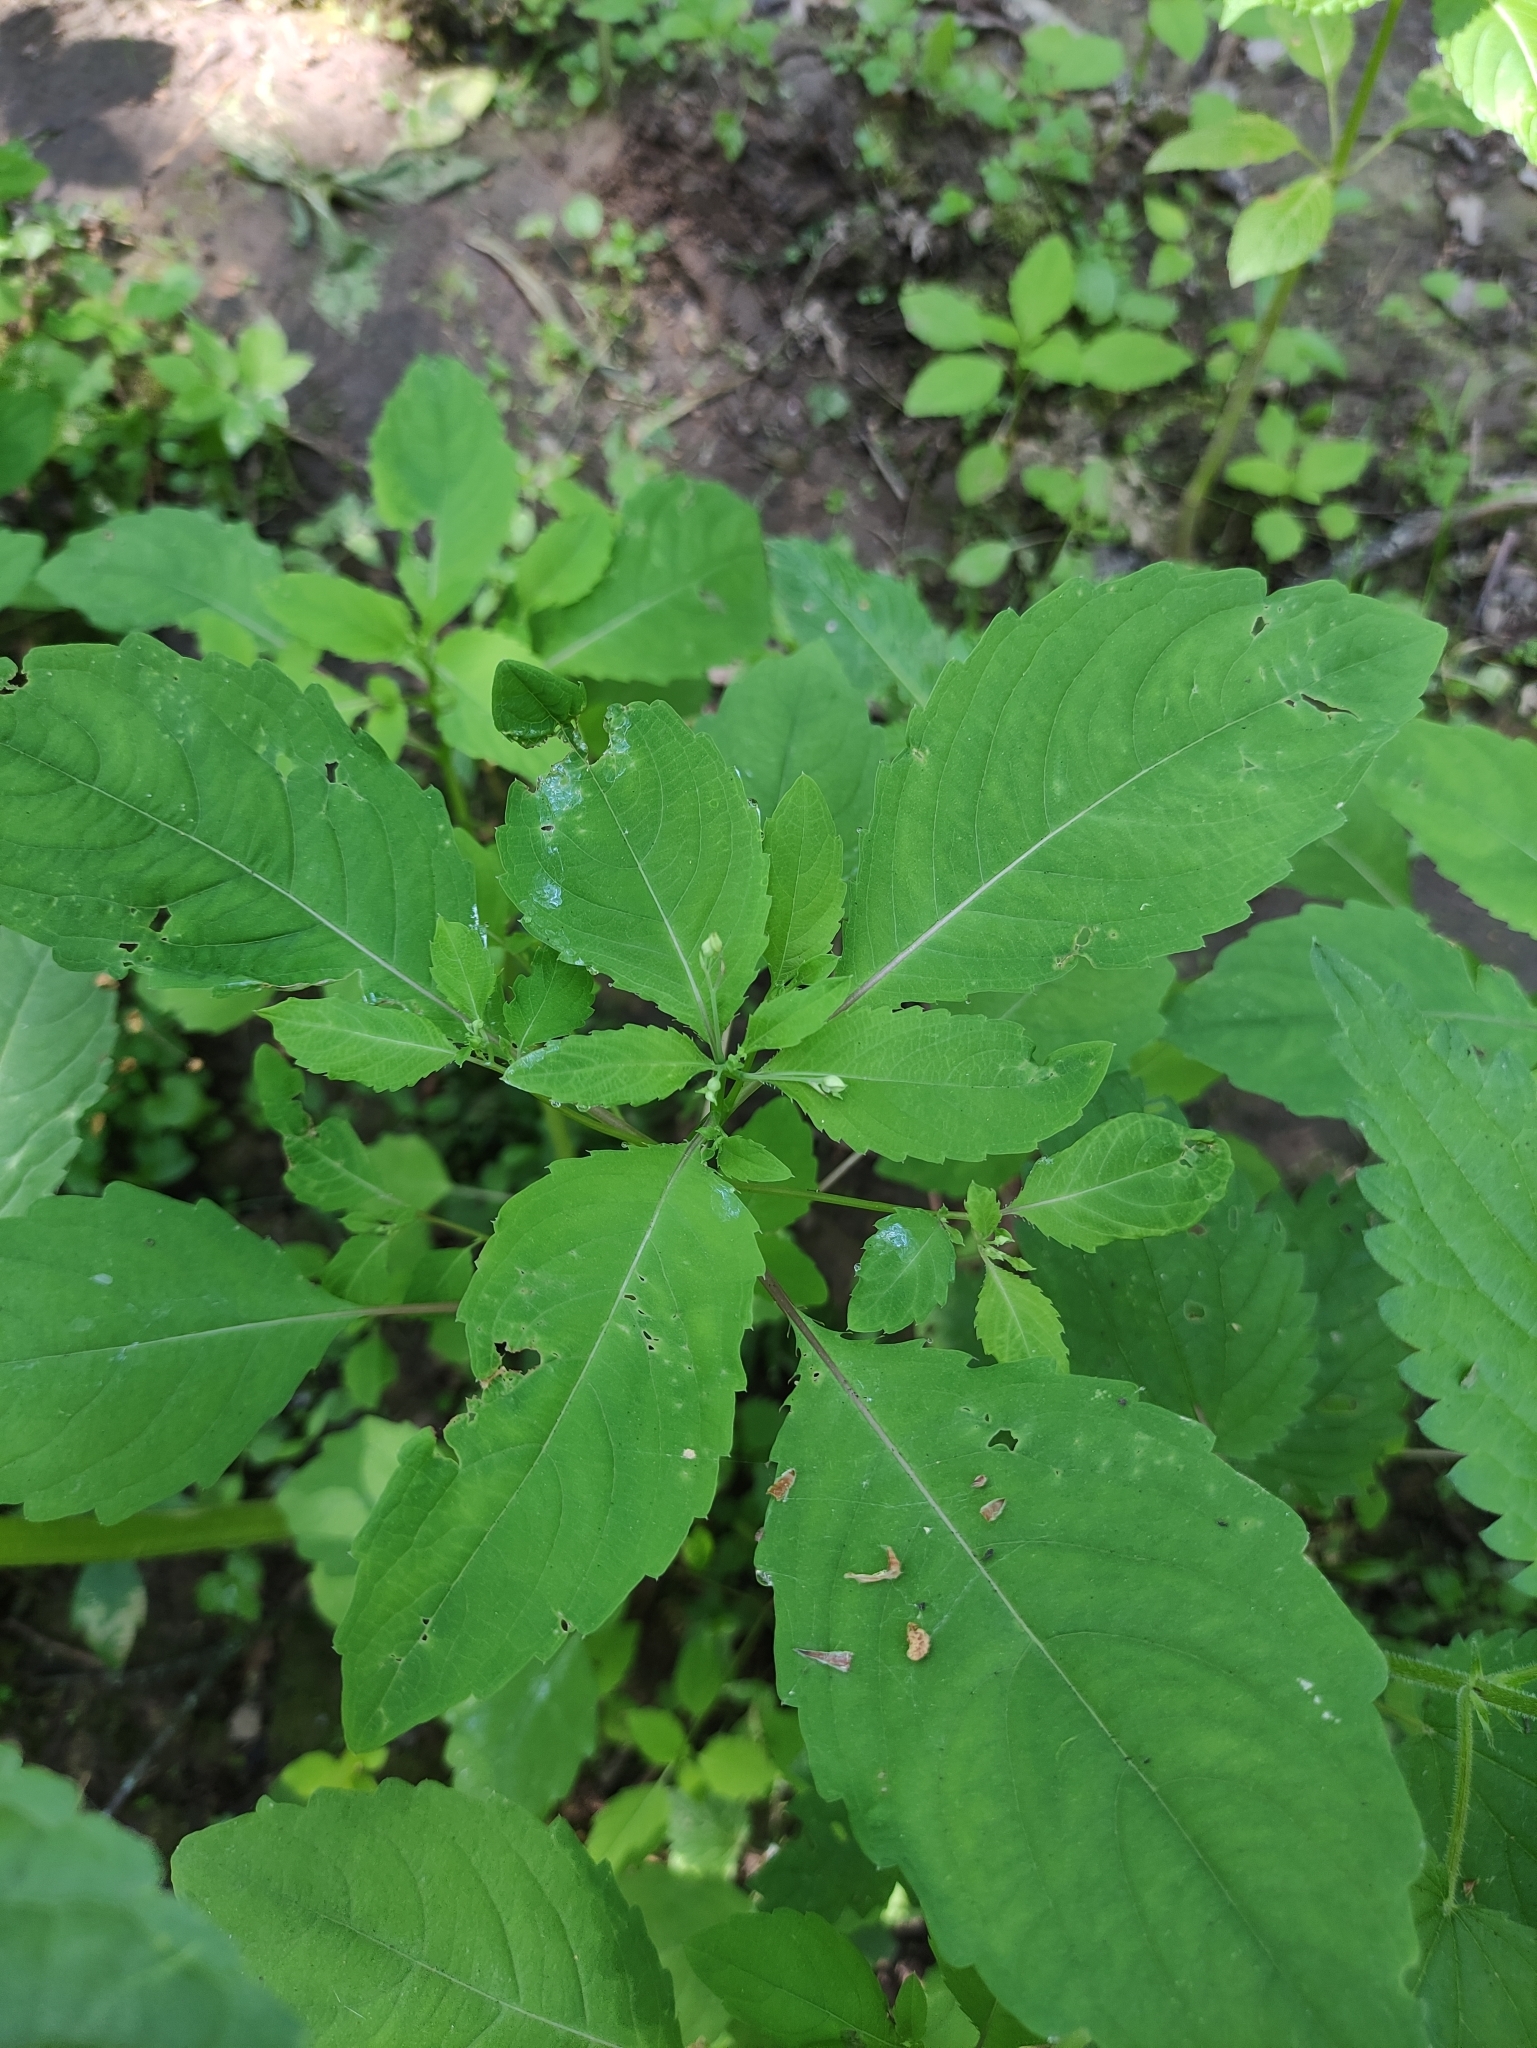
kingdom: Plantae
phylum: Tracheophyta
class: Magnoliopsida
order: Ericales
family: Balsaminaceae
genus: Impatiens
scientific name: Impatiens noli-tangere
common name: Touch-me-not balsam
